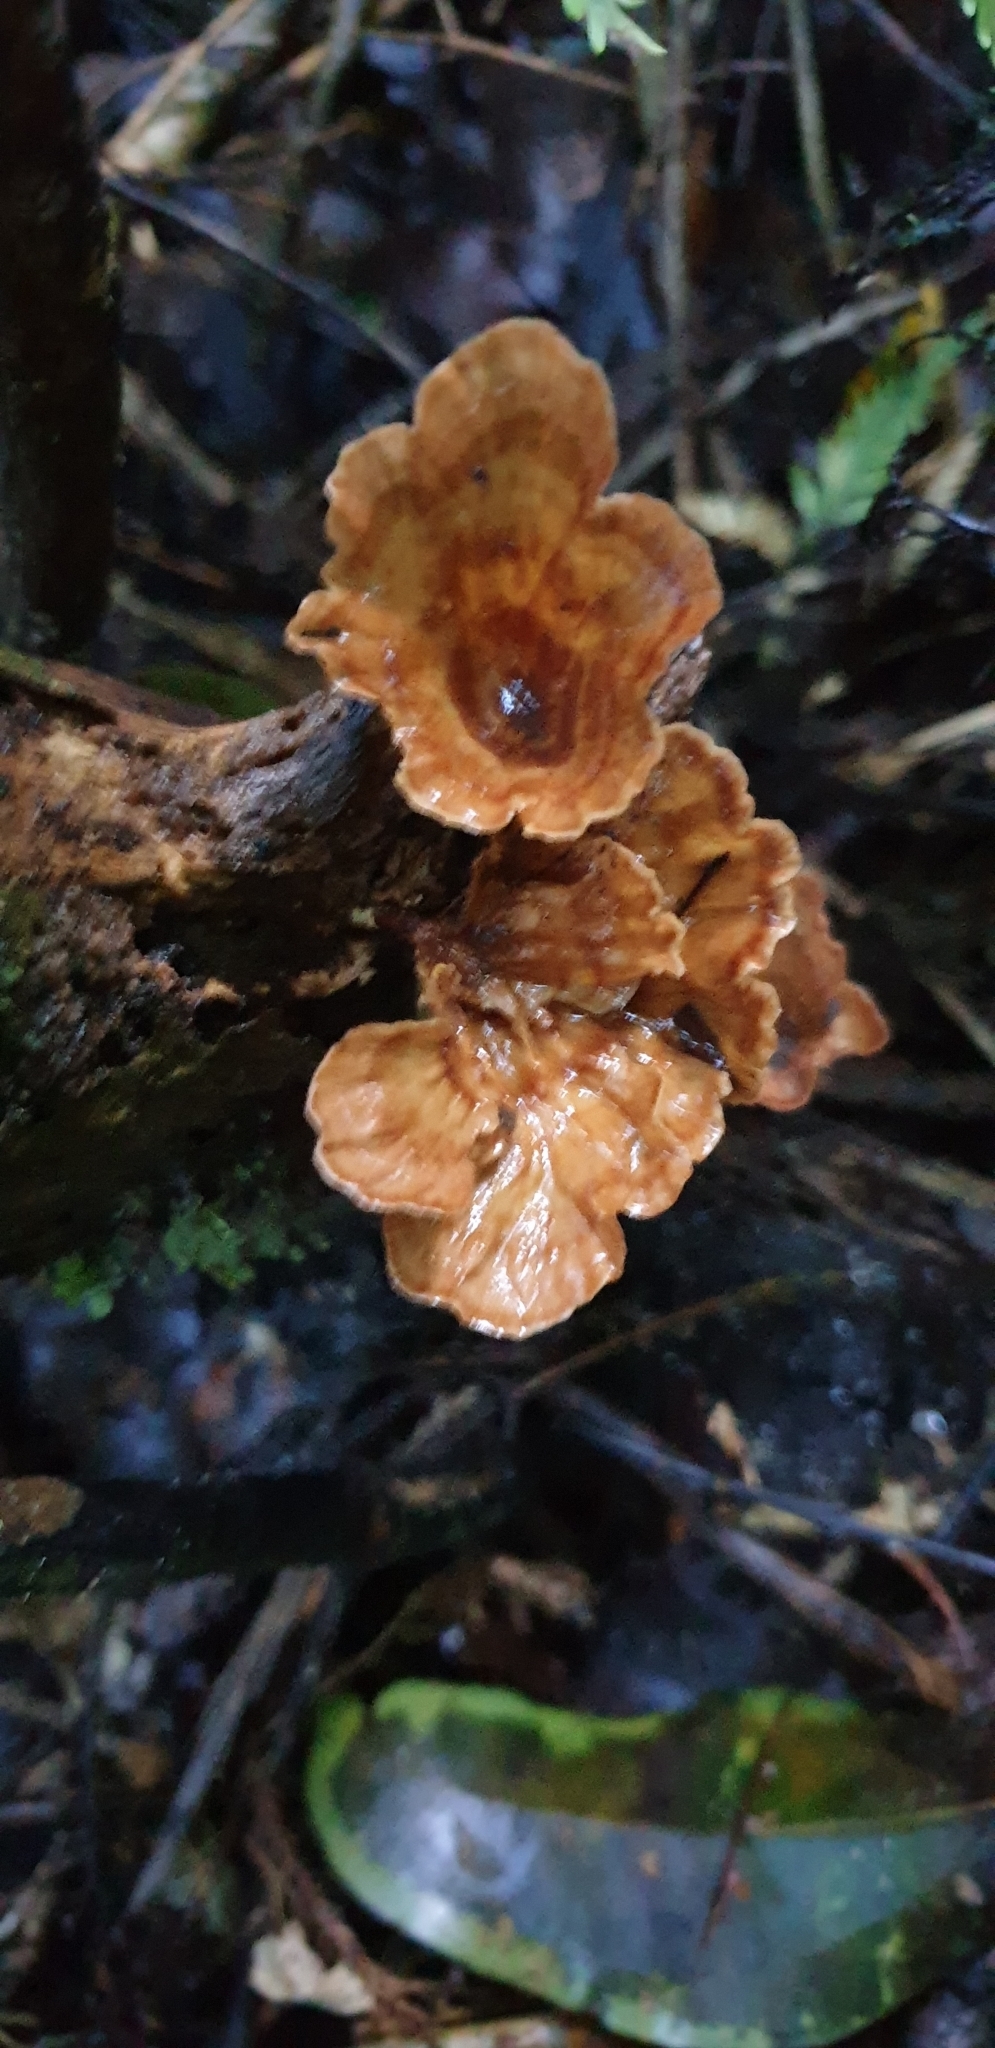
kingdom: Fungi
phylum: Basidiomycota
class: Agaricomycetes
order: Polyporales
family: Podoscyphaceae
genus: Podoscypha
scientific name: Podoscypha petalodes
